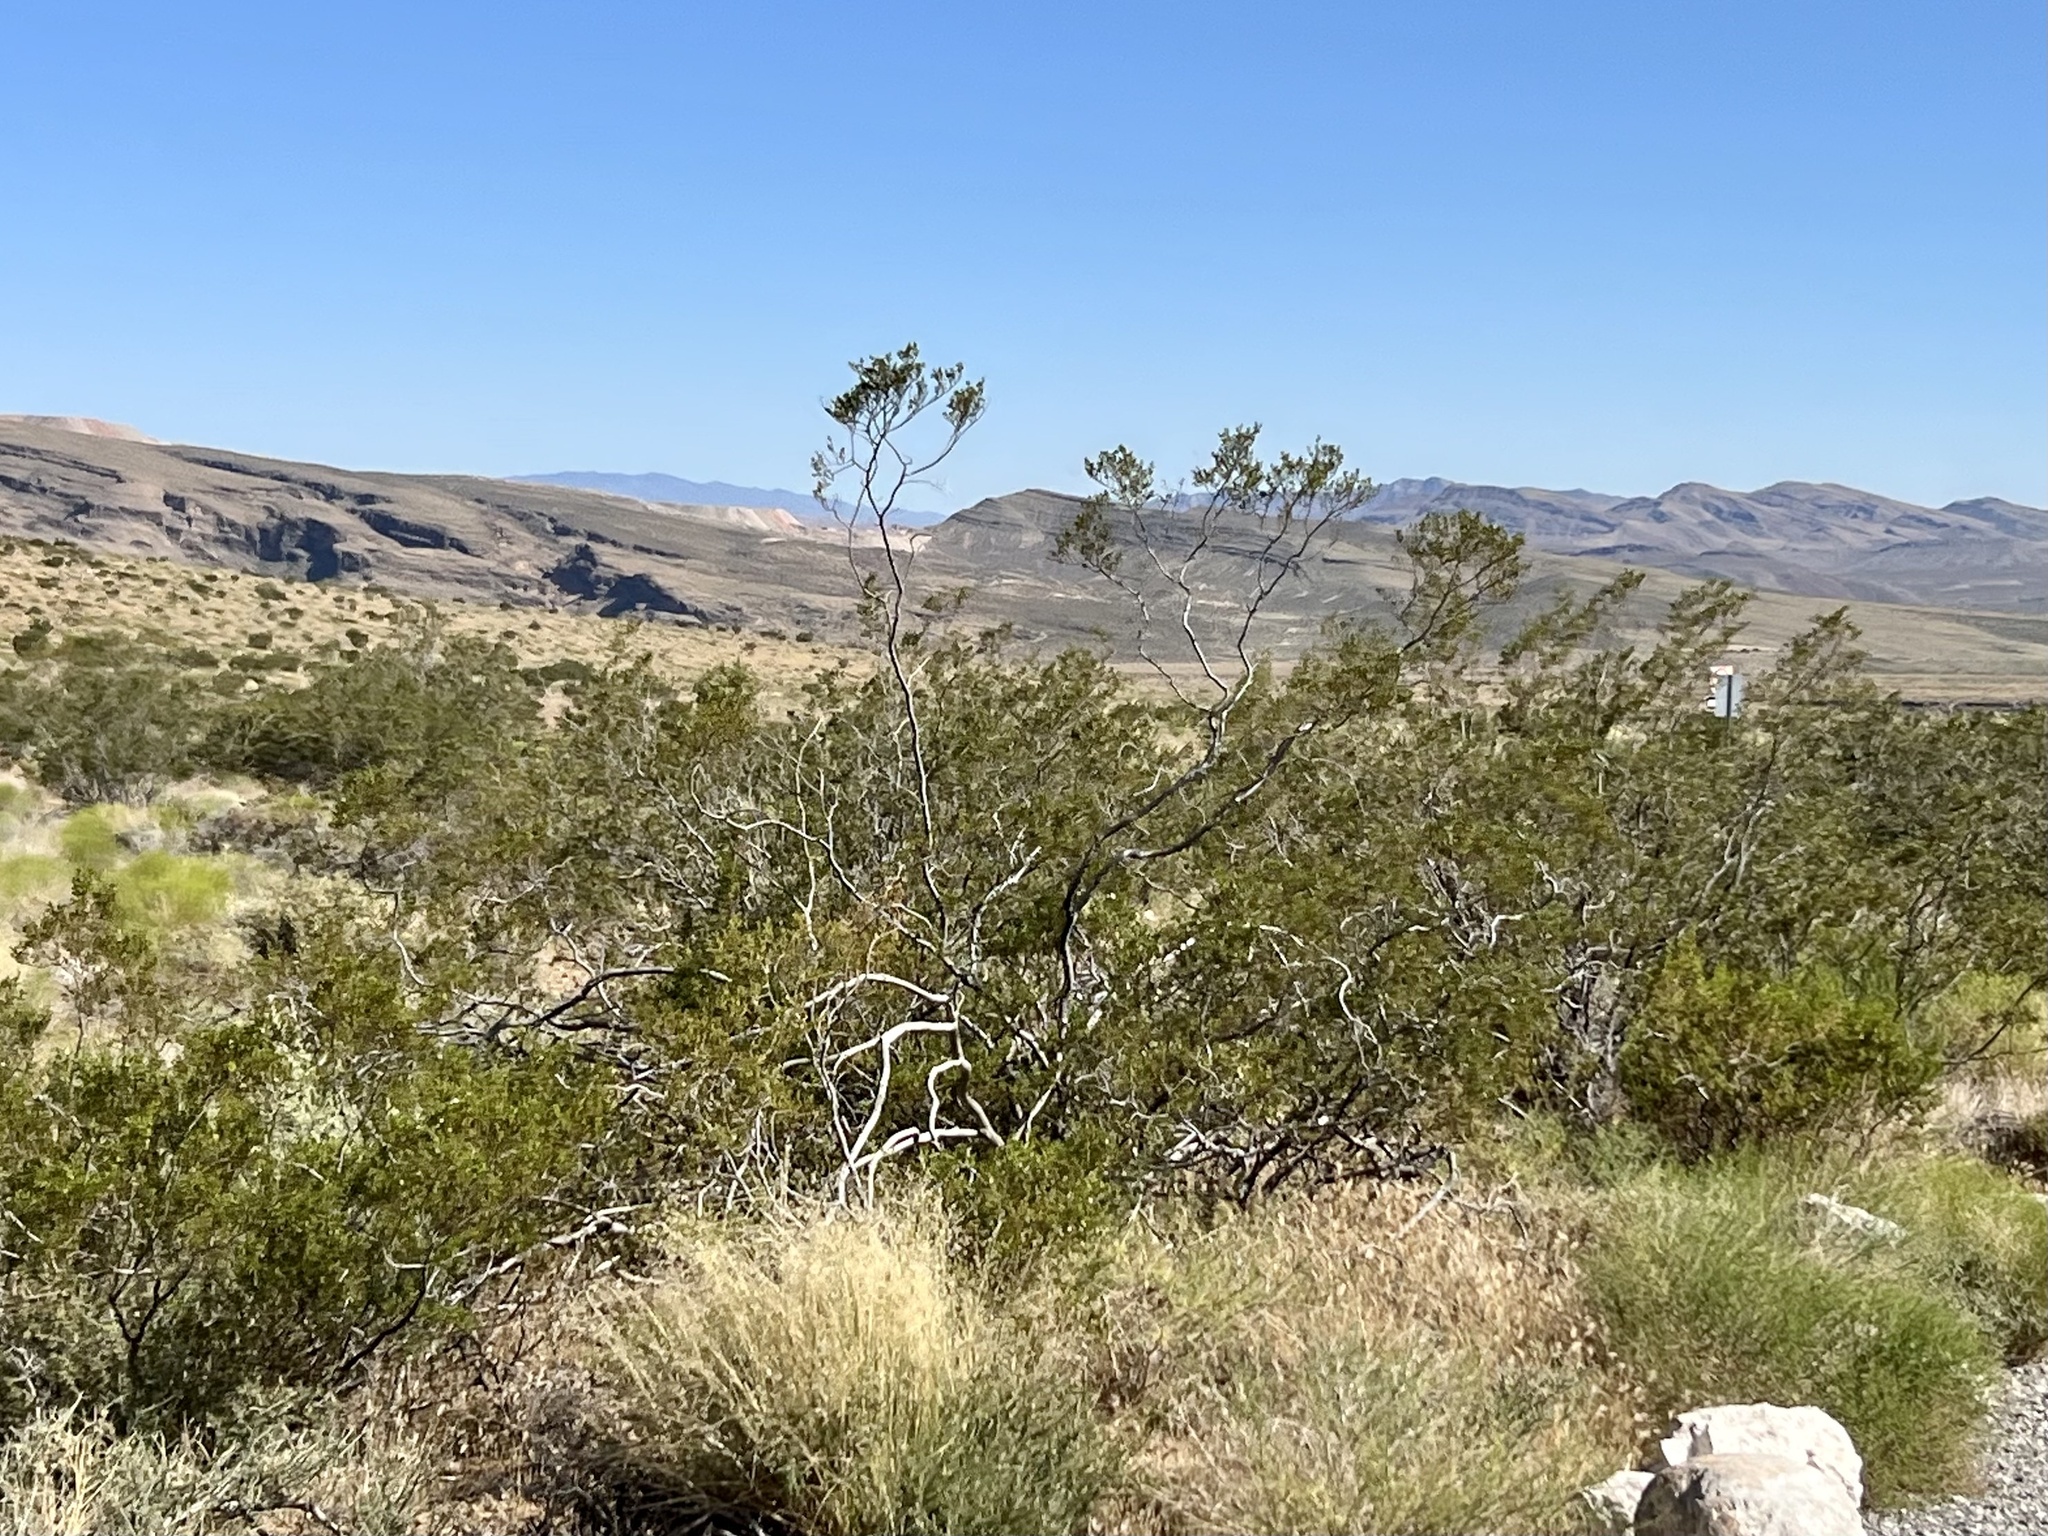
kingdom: Plantae
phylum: Tracheophyta
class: Magnoliopsida
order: Zygophyllales
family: Zygophyllaceae
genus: Larrea
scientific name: Larrea tridentata
